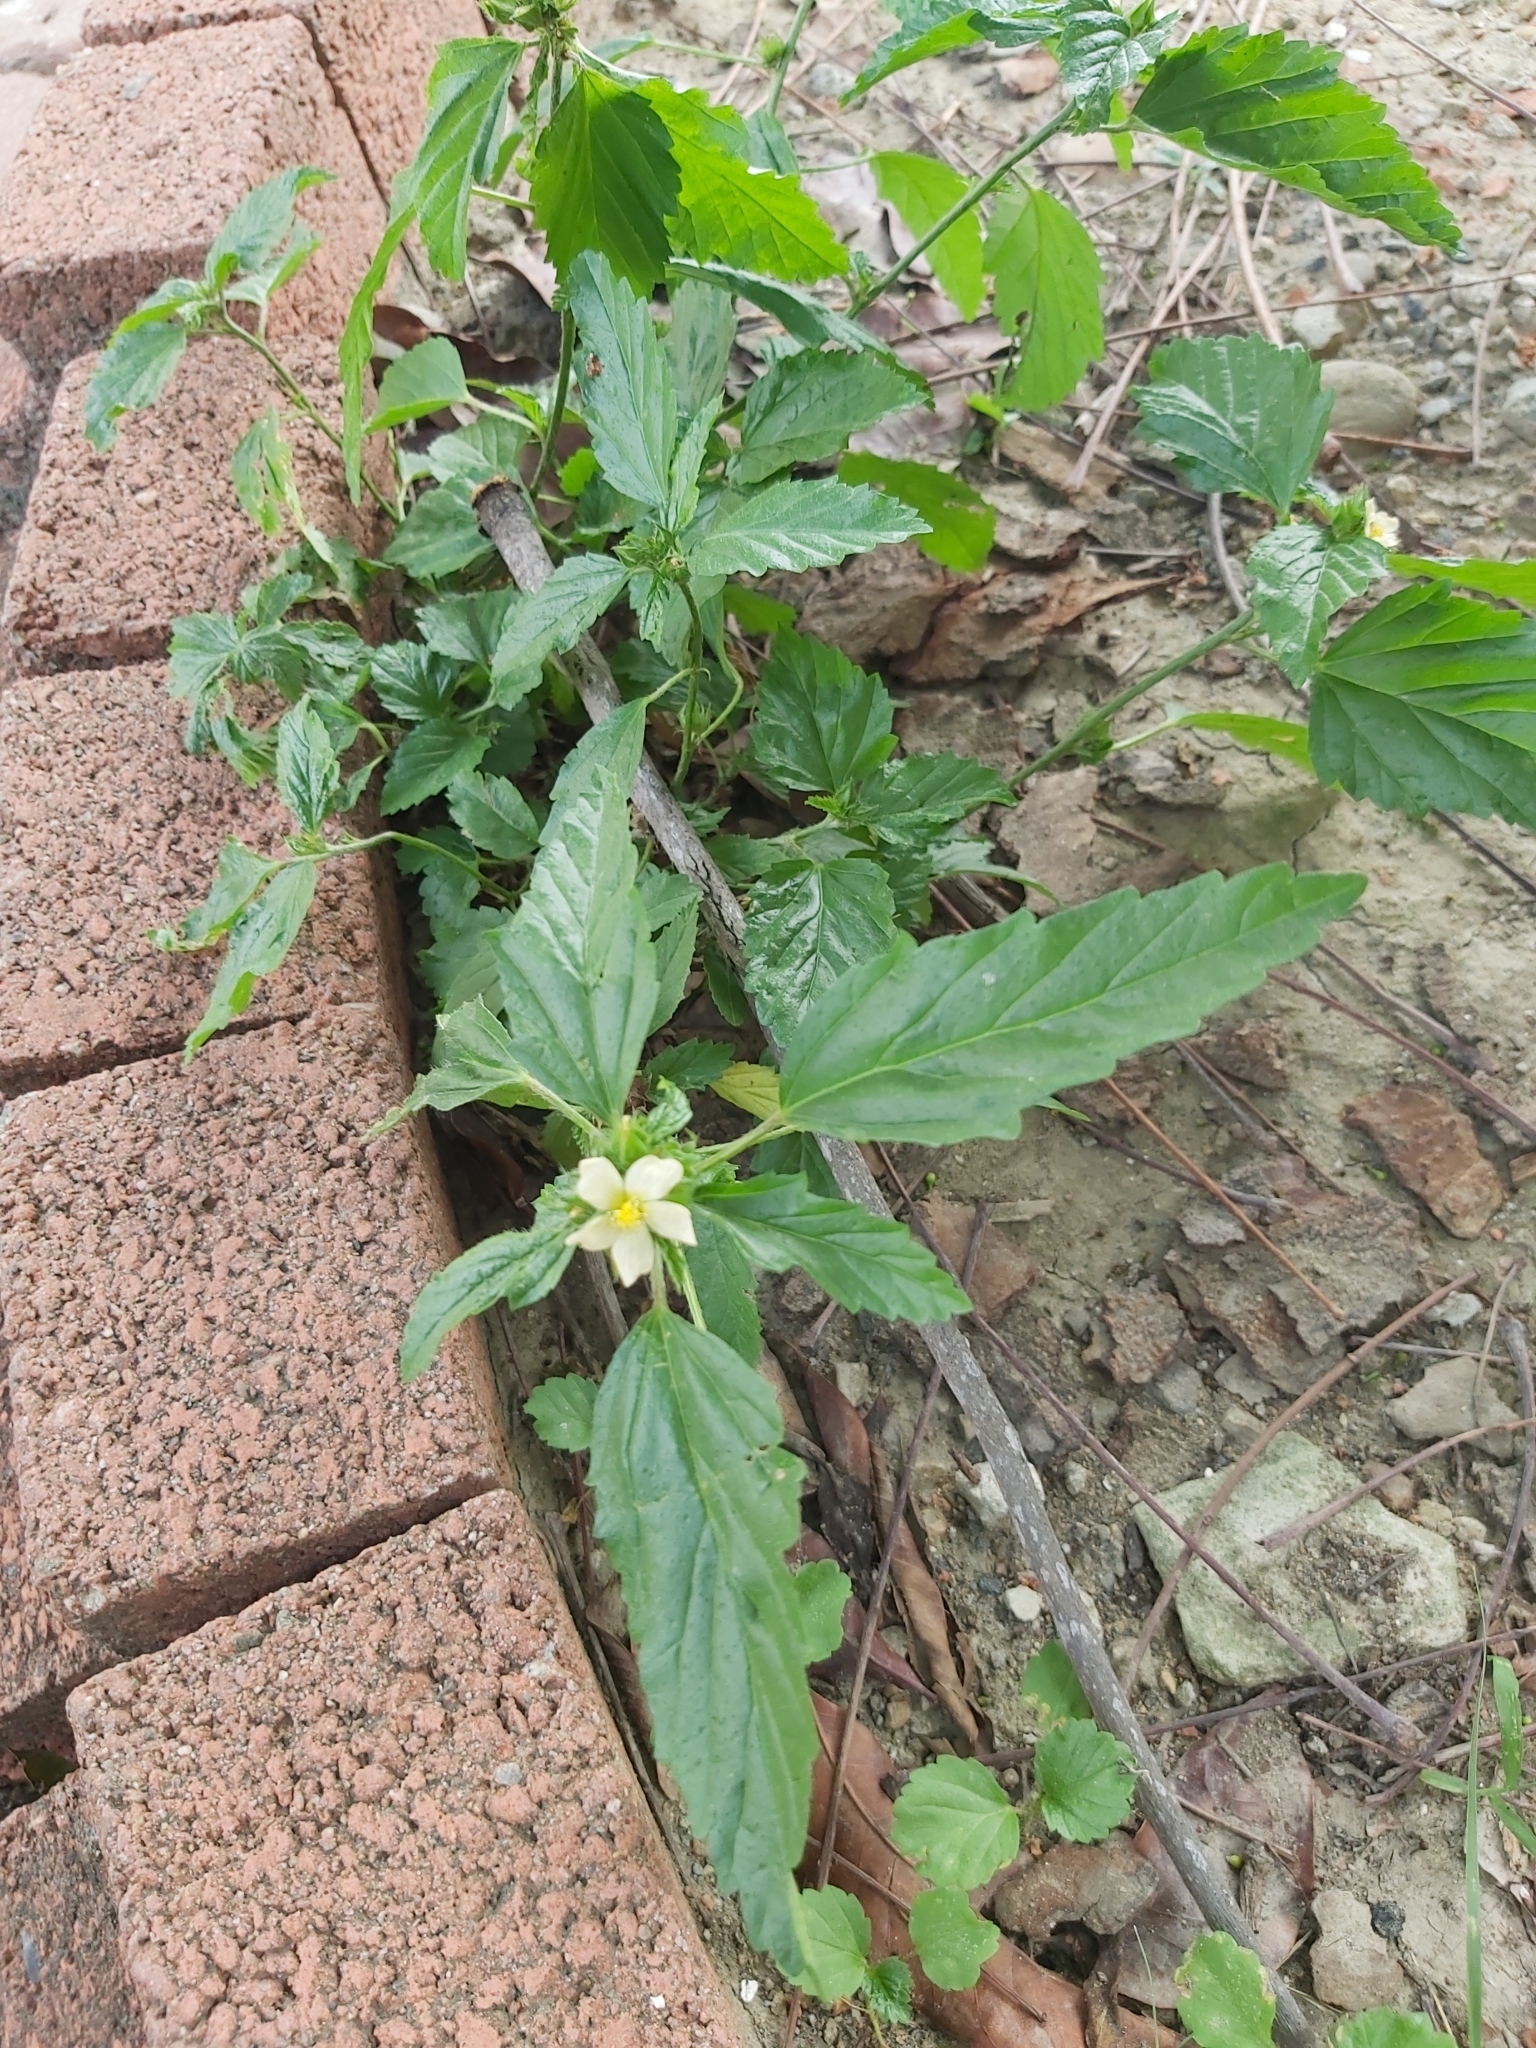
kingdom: Plantae
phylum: Tracheophyta
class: Magnoliopsida
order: Malvales
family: Malvaceae
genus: Malvastrum
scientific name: Malvastrum coromandelianum
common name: Threelobe false mallow
